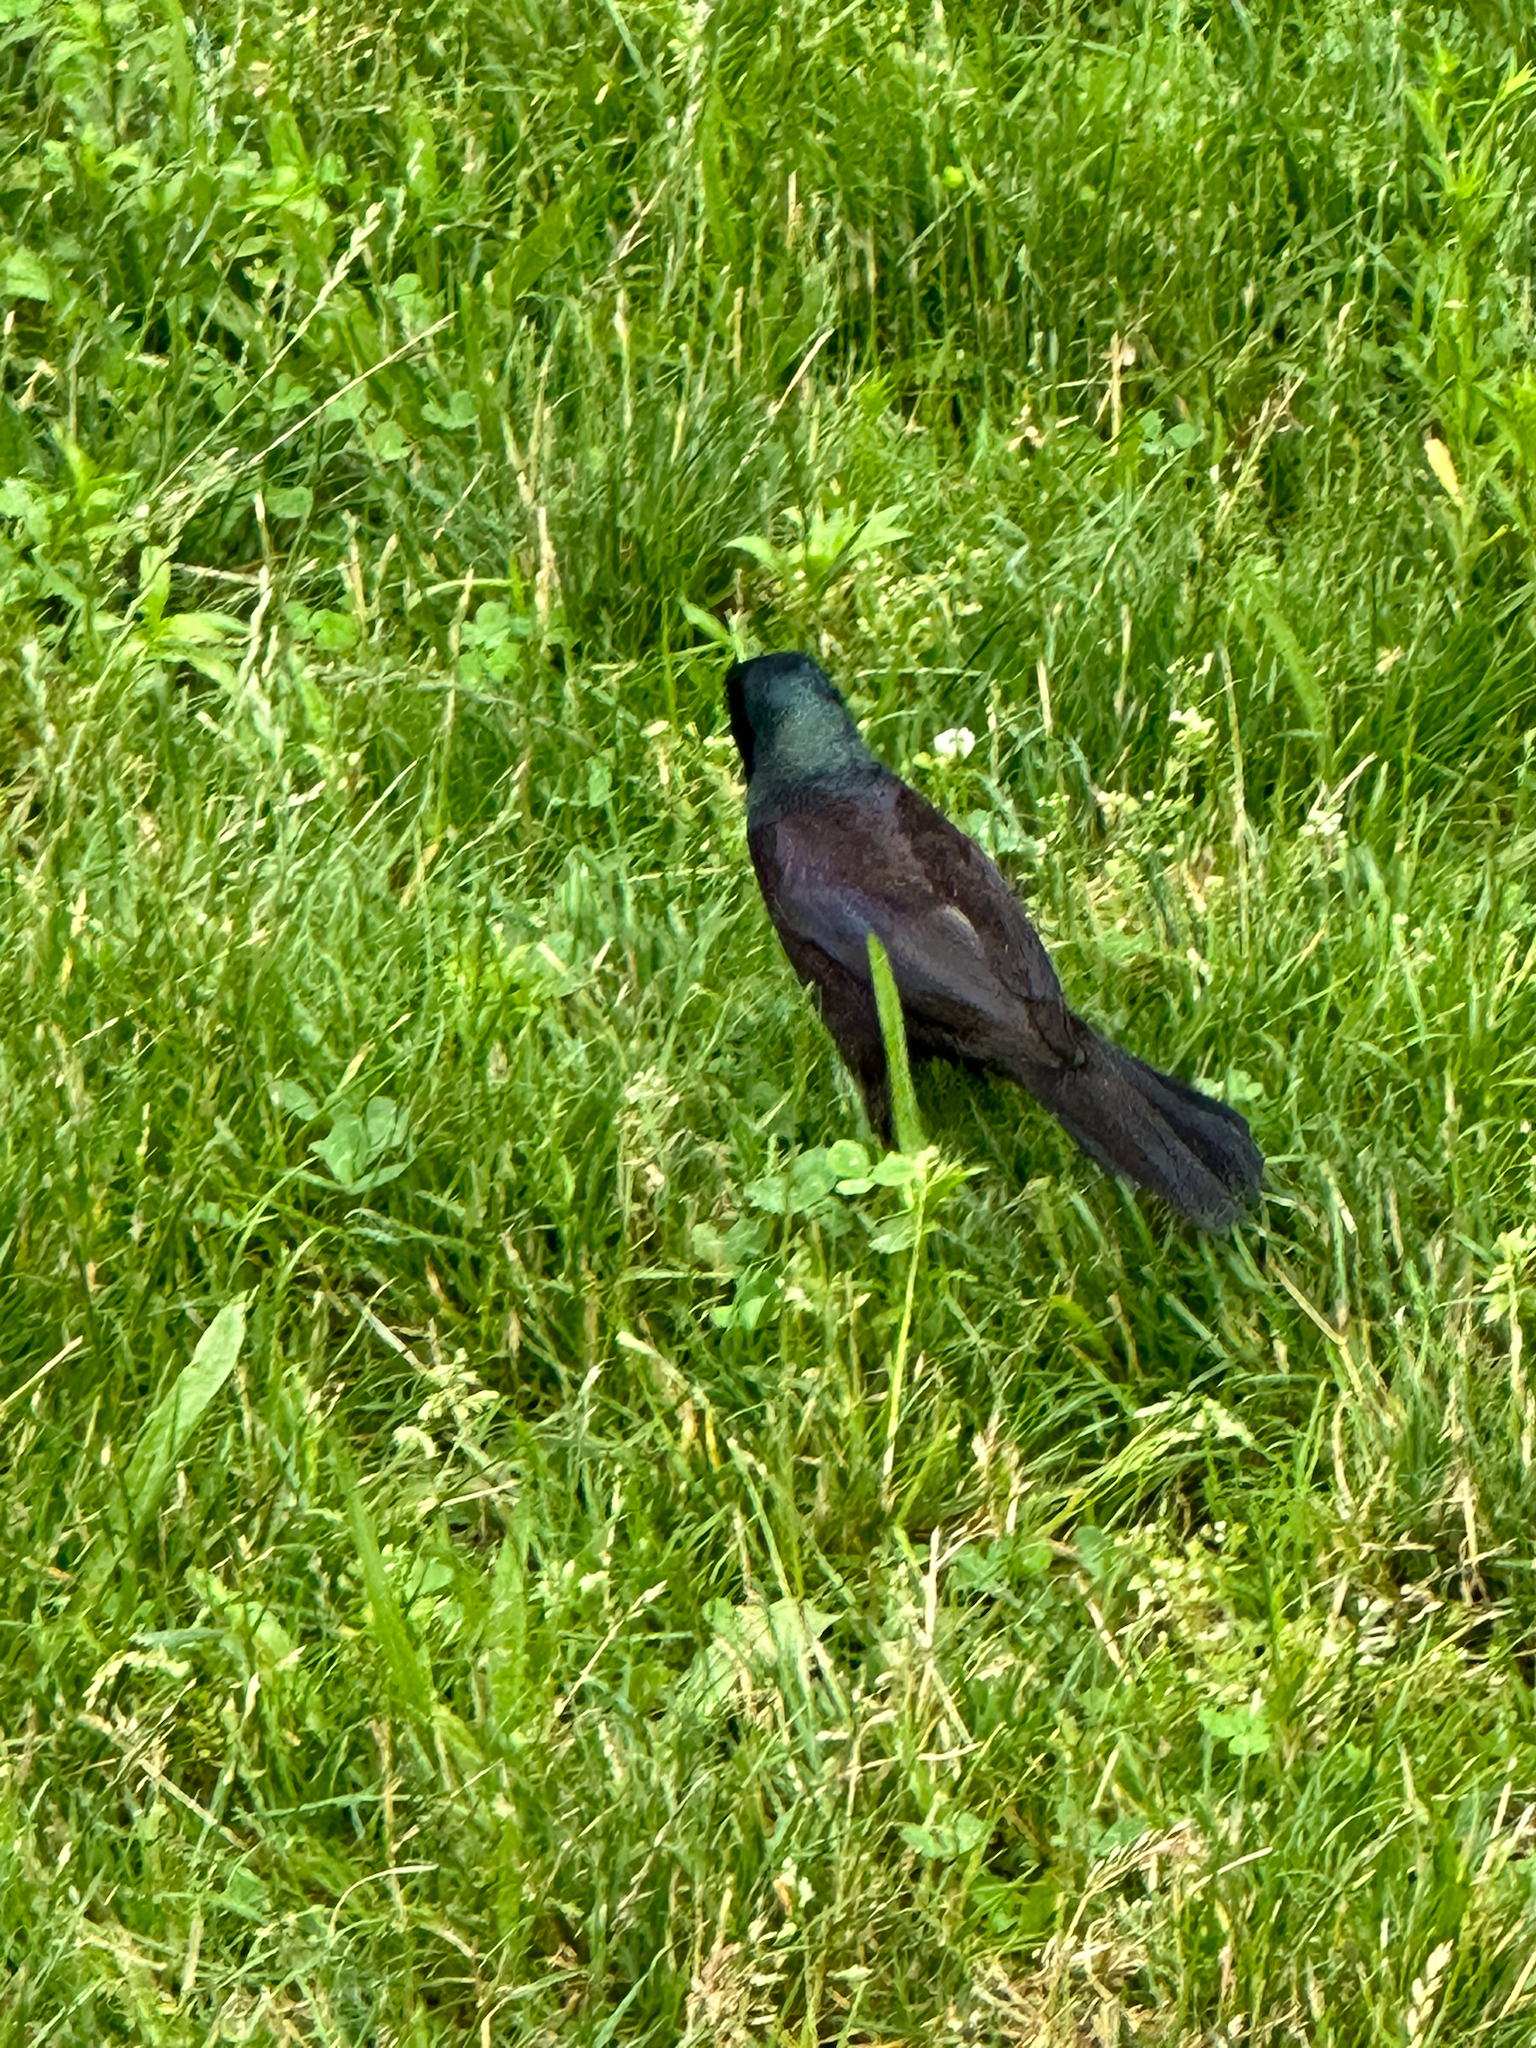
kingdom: Animalia
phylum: Chordata
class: Aves
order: Passeriformes
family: Icteridae
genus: Quiscalus
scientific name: Quiscalus quiscula
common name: Common grackle
